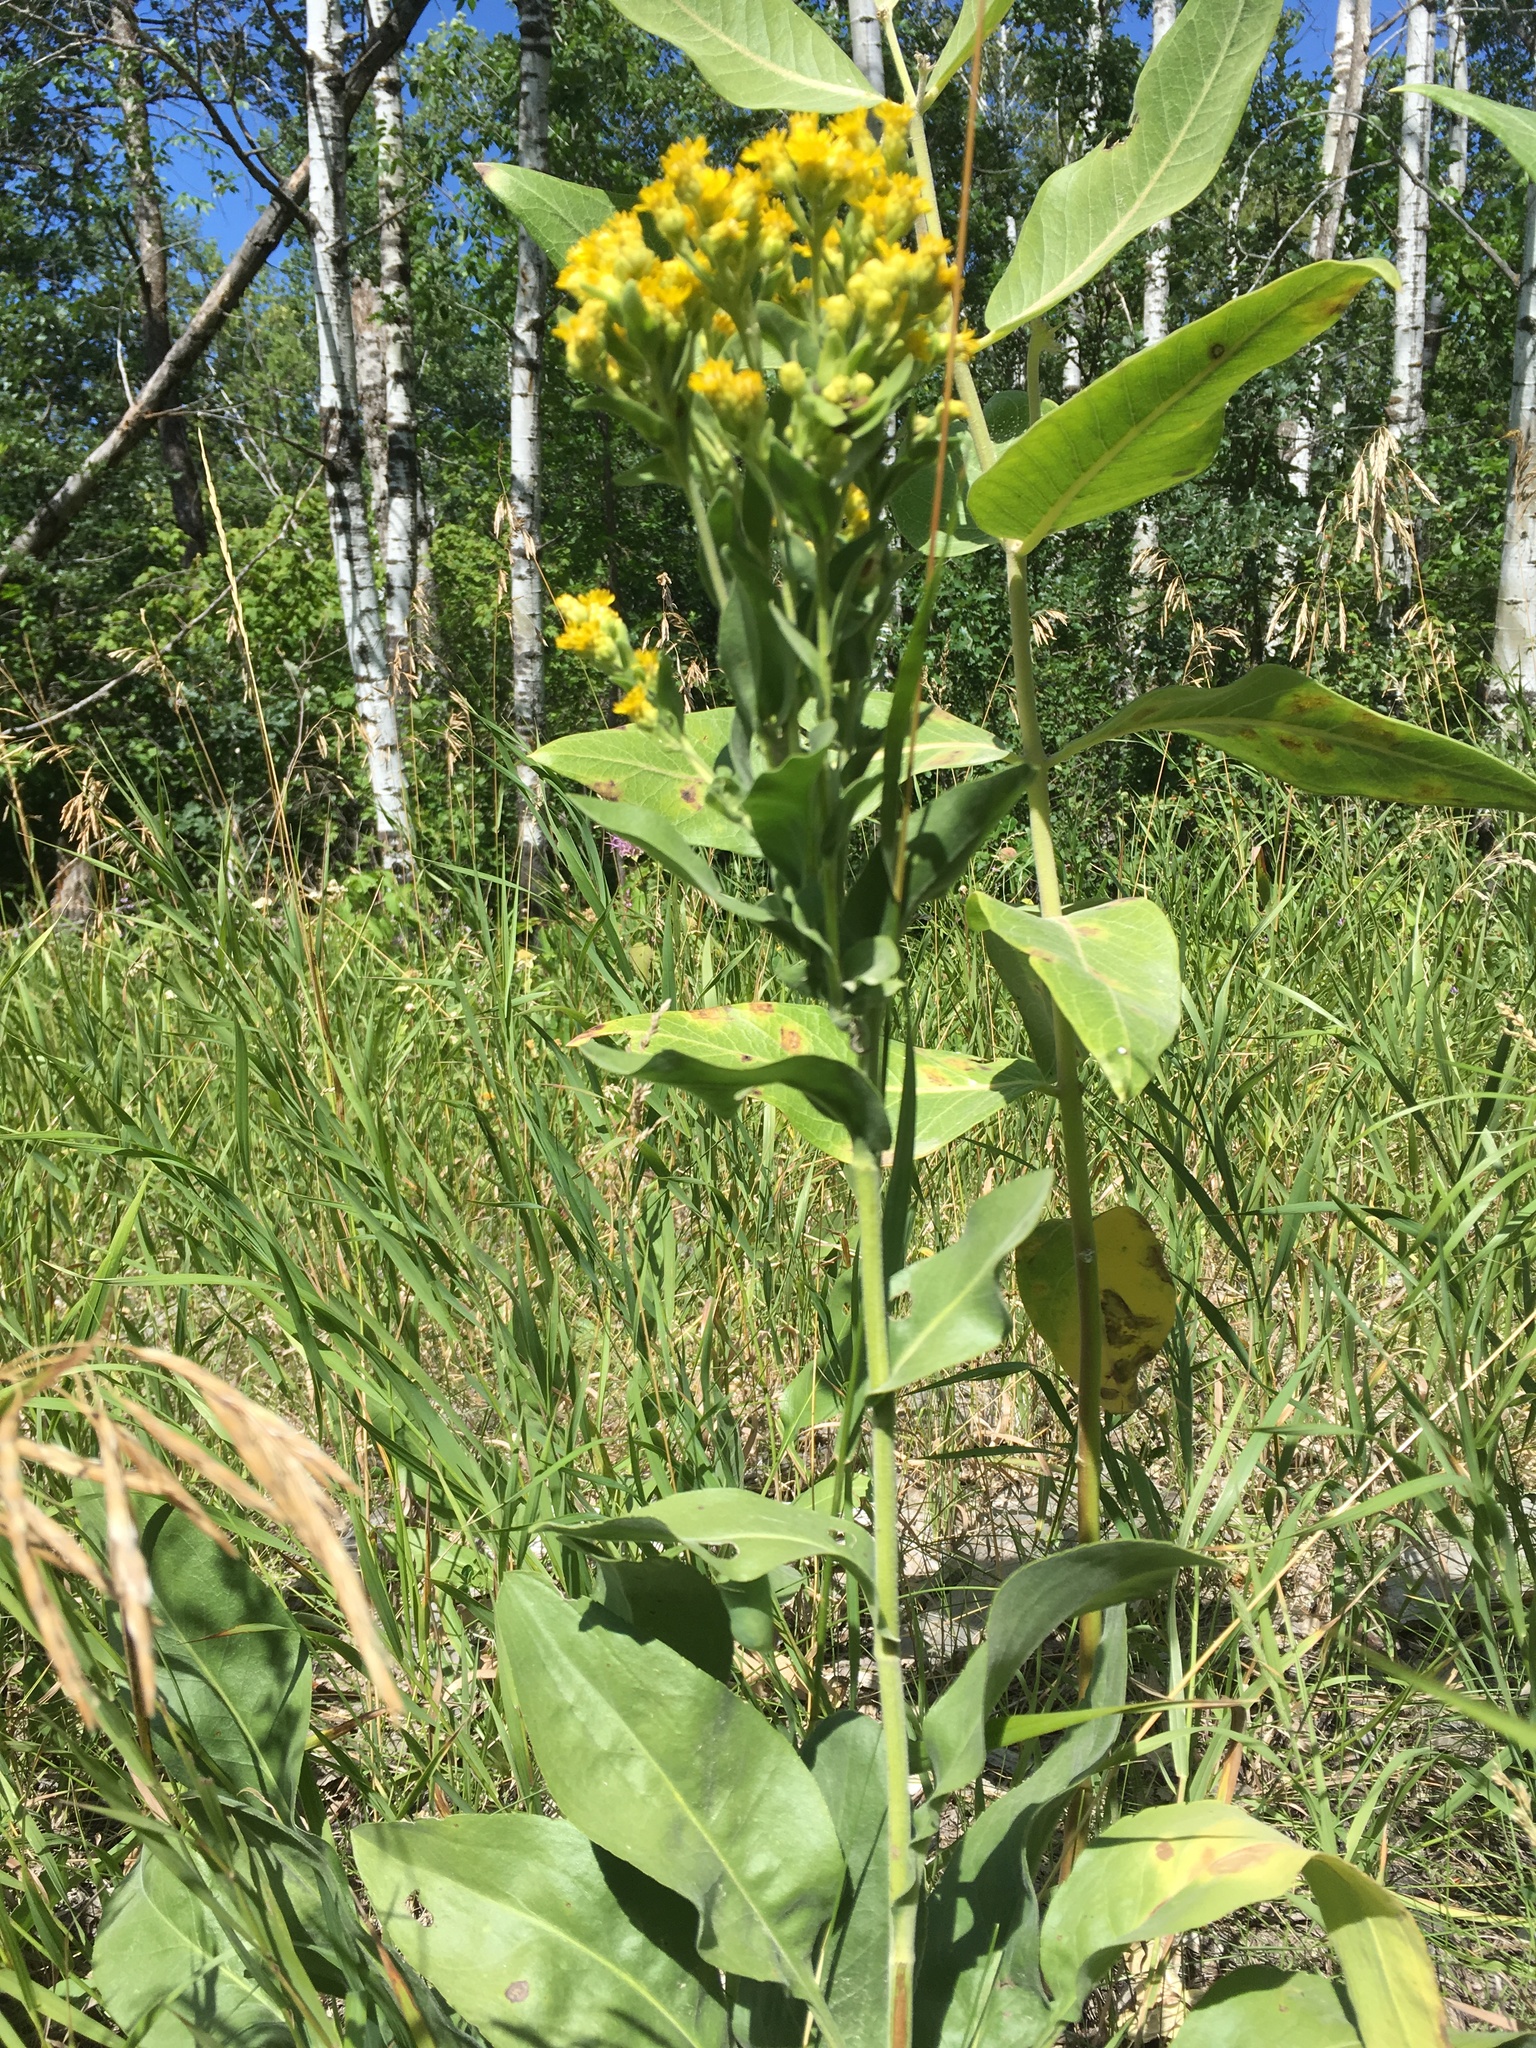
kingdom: Plantae
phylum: Tracheophyta
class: Magnoliopsida
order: Asterales
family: Asteraceae
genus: Solidago
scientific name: Solidago rigida
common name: Rigid goldenrod
